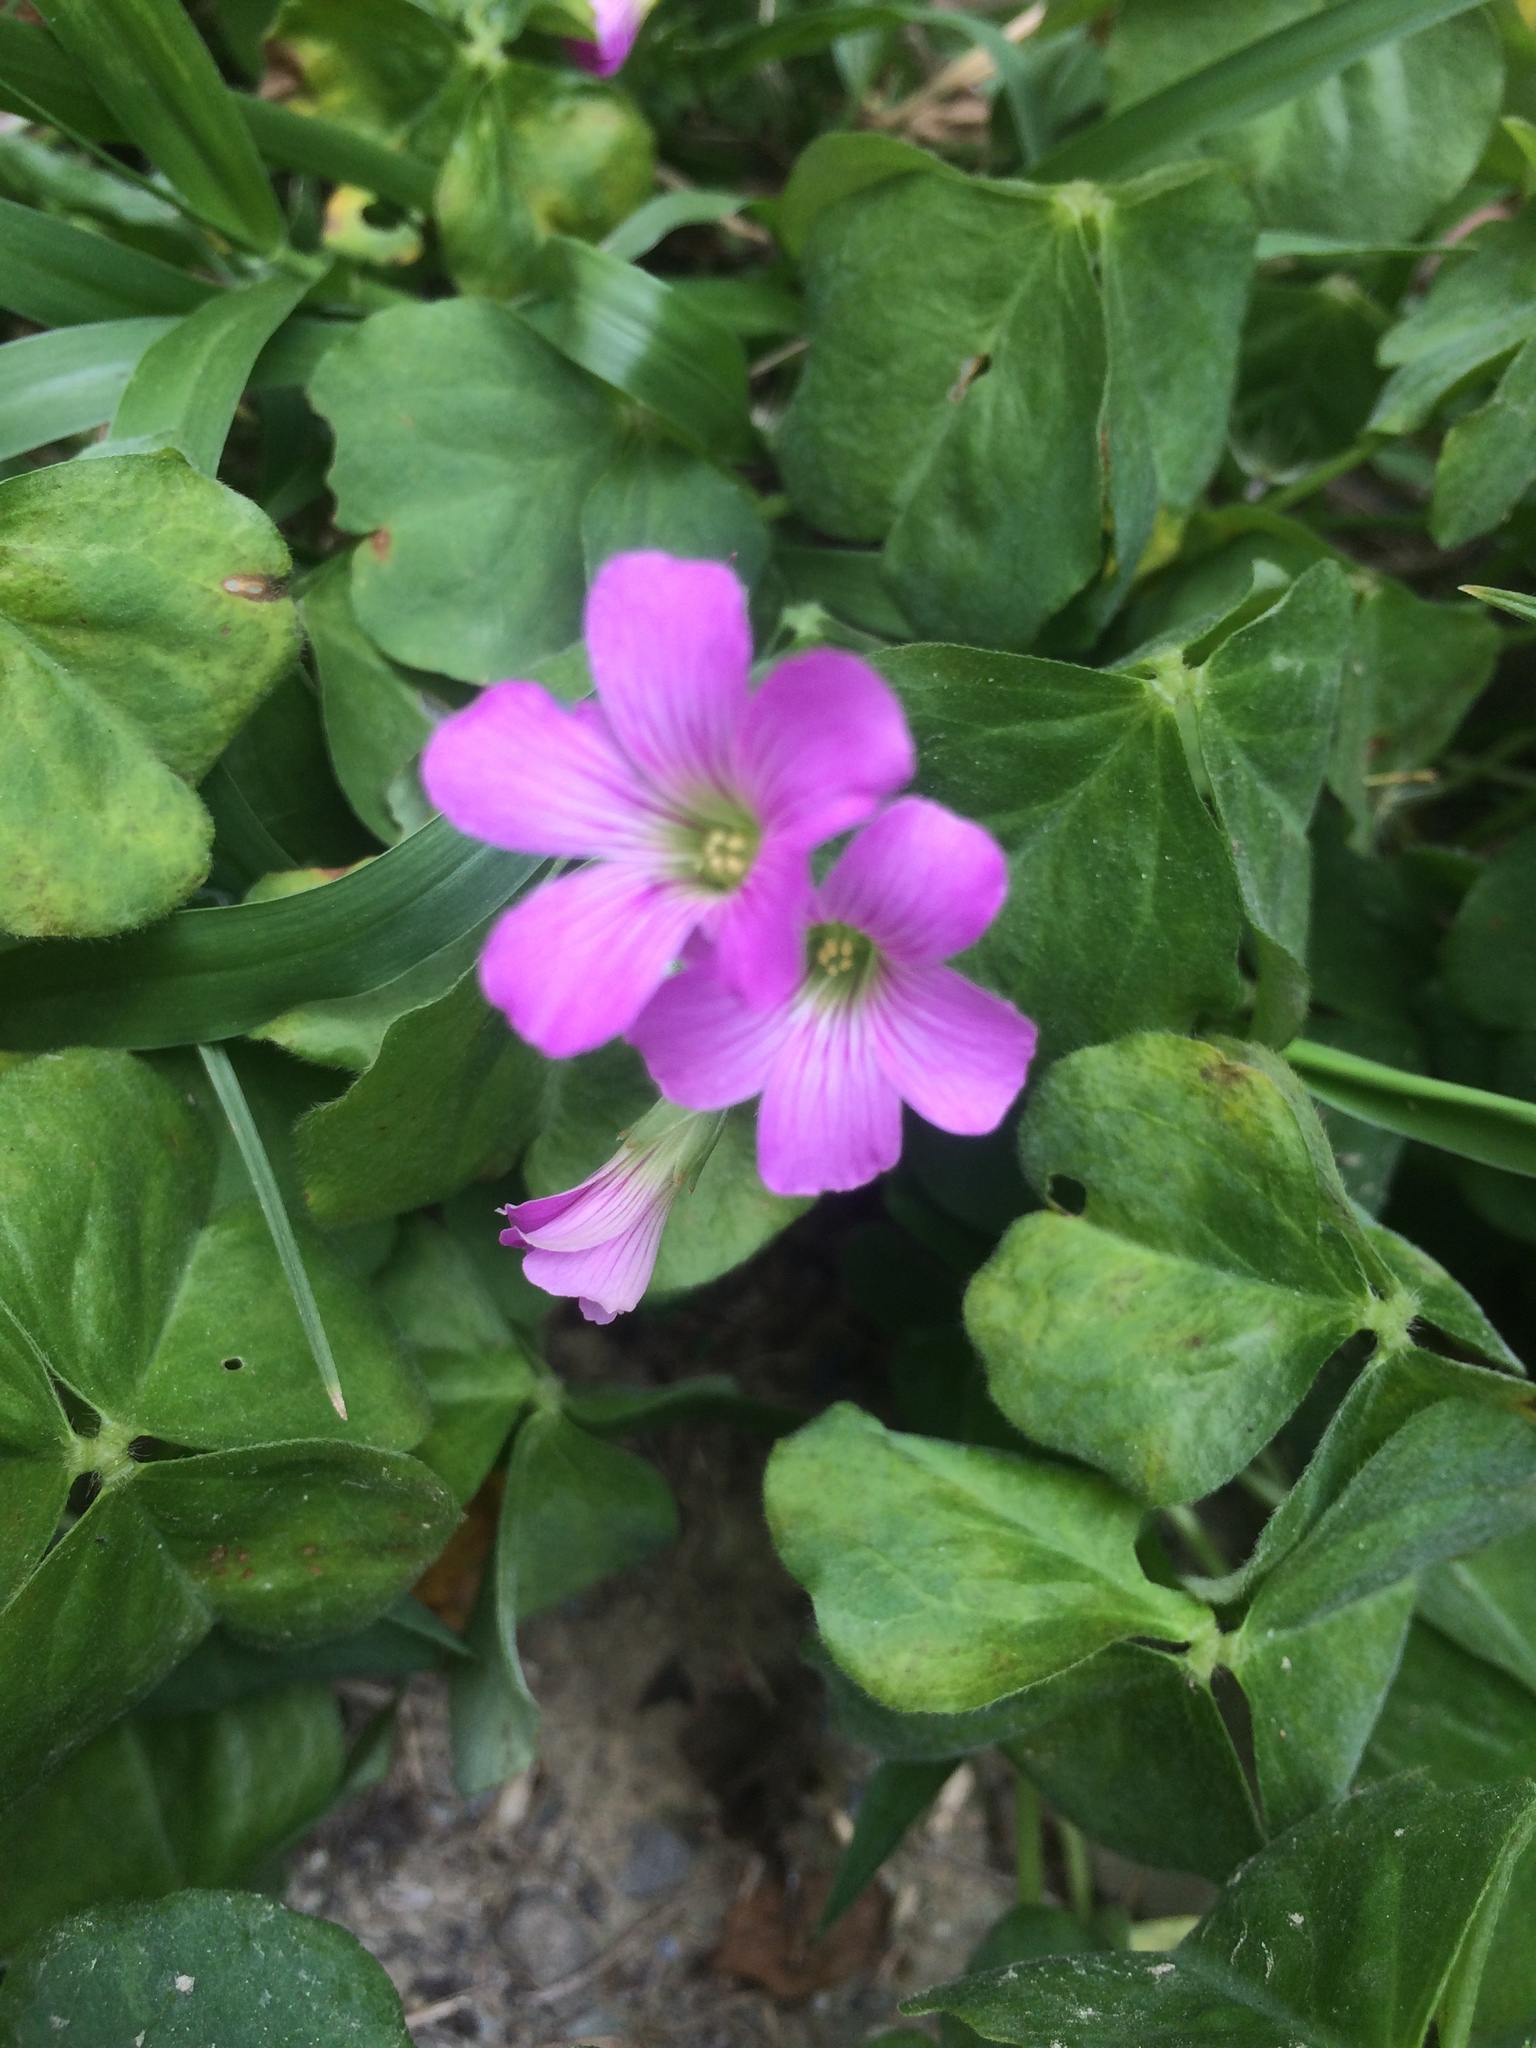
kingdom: Plantae
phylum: Tracheophyta
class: Magnoliopsida
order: Oxalidales
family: Oxalidaceae
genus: Oxalis
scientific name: Oxalis debilis
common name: Large-flowered pink-sorrel
